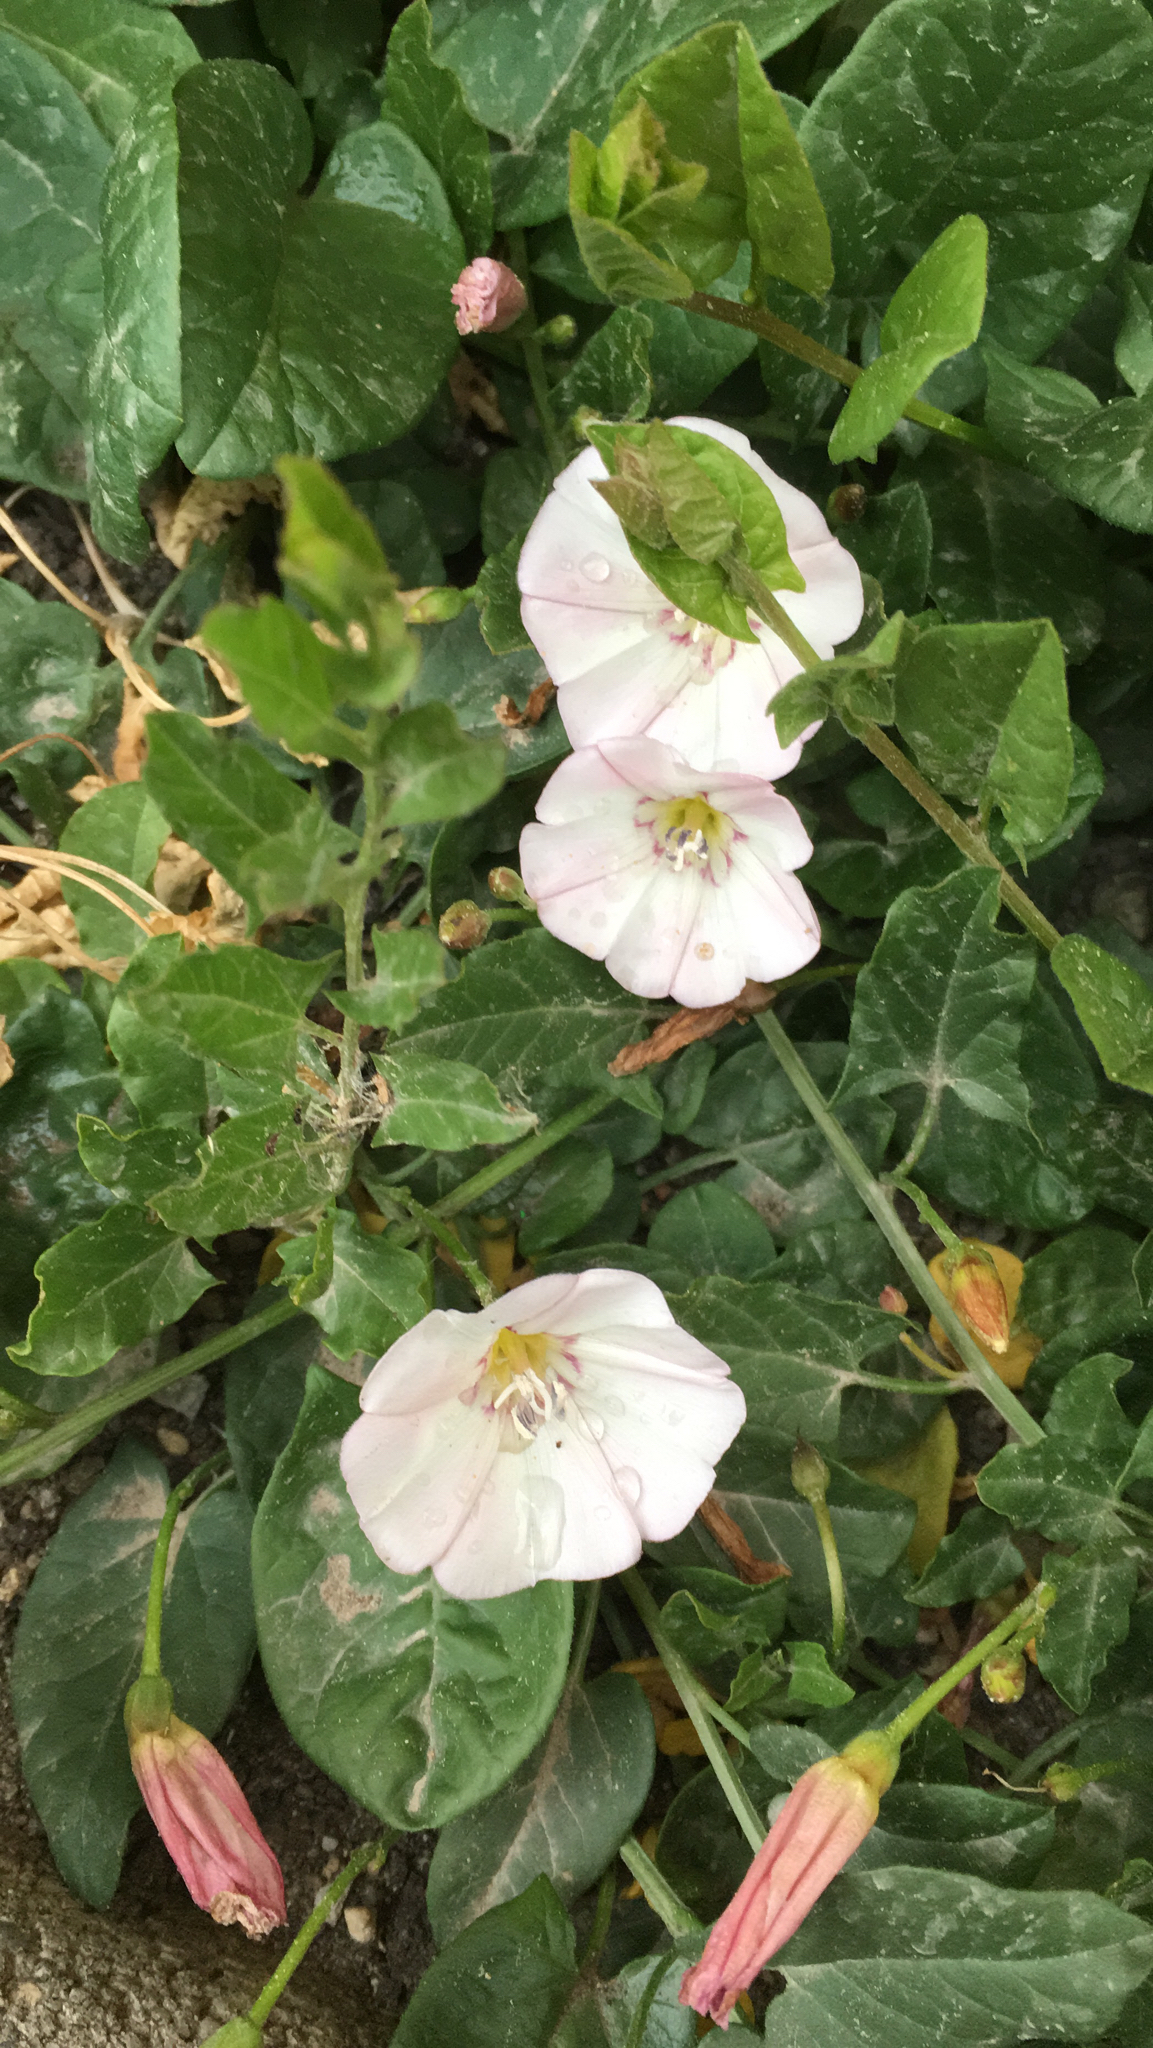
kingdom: Plantae
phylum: Tracheophyta
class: Magnoliopsida
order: Solanales
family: Convolvulaceae
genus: Convolvulus
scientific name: Convolvulus arvensis
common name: Field bindweed
